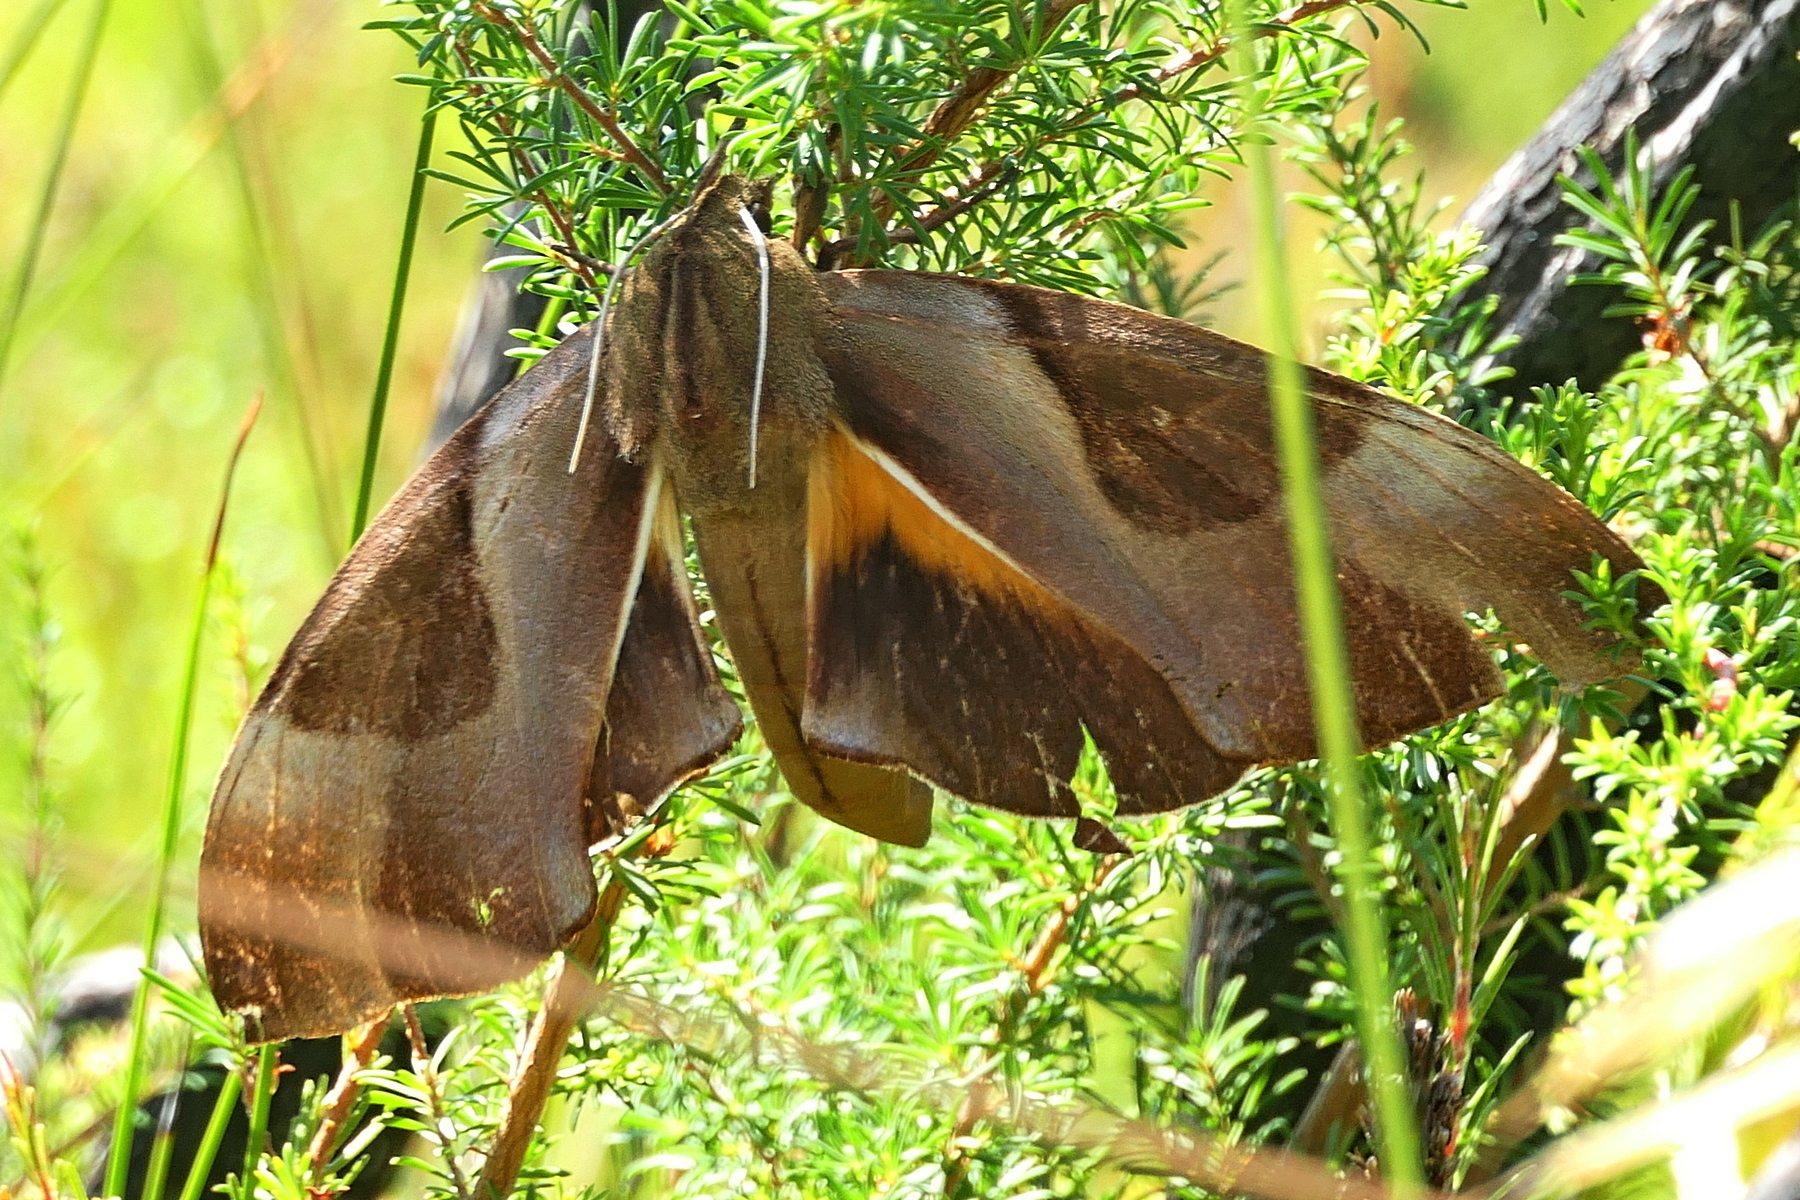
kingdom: Animalia
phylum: Arthropoda
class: Insecta
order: Lepidoptera
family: Sphingidae
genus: Coequosa
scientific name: Coequosa triangularis
